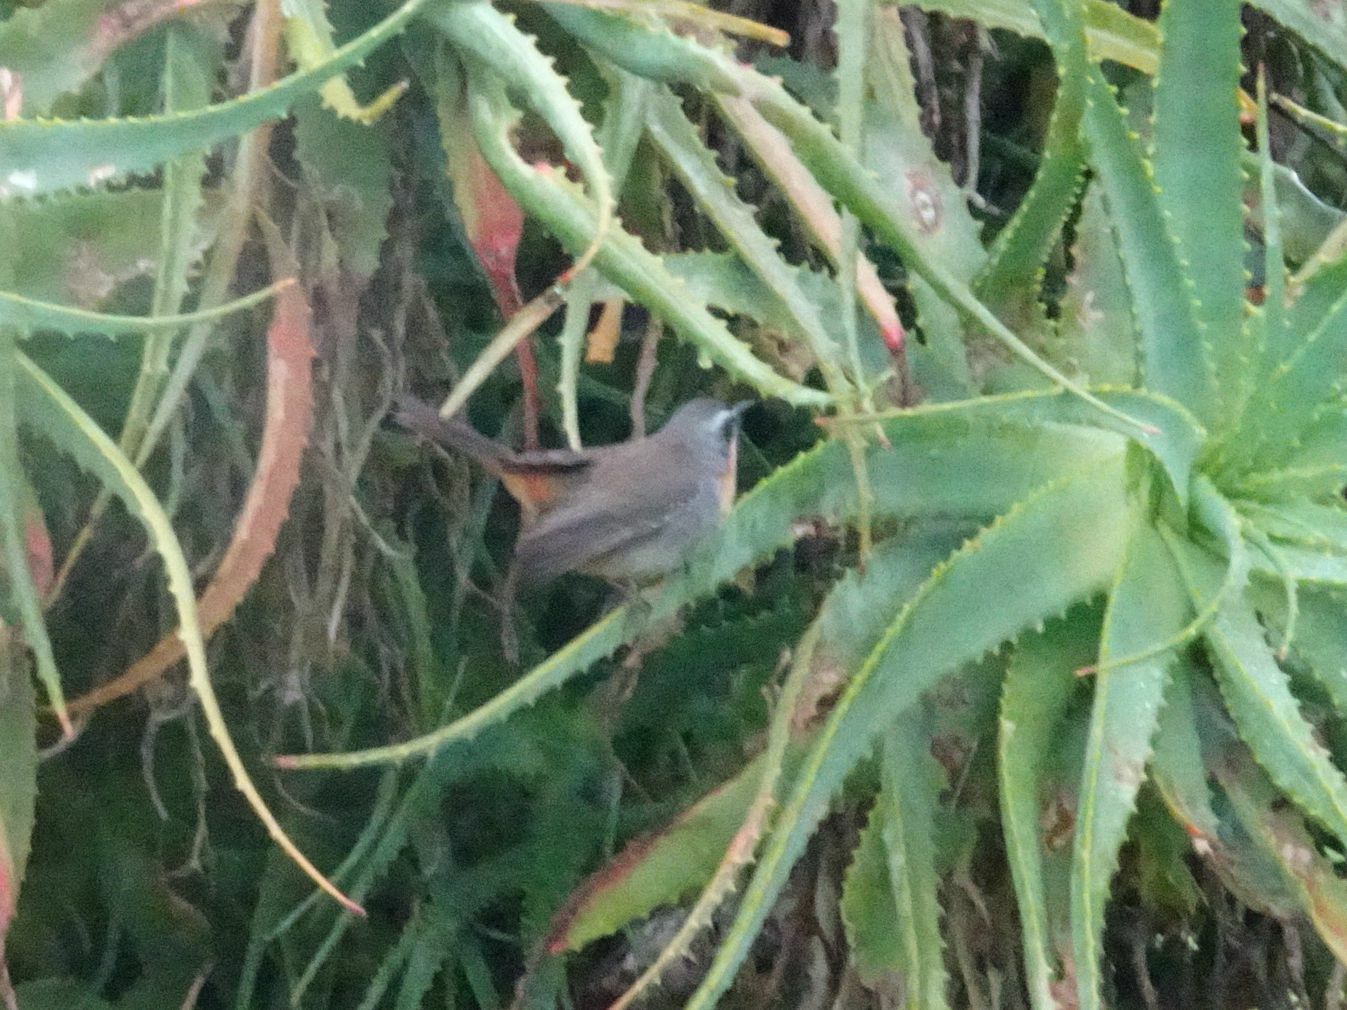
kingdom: Animalia
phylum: Chordata
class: Aves
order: Passeriformes
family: Muscicapidae
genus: Cossypha
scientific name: Cossypha caffra
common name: Cape robin-chat
